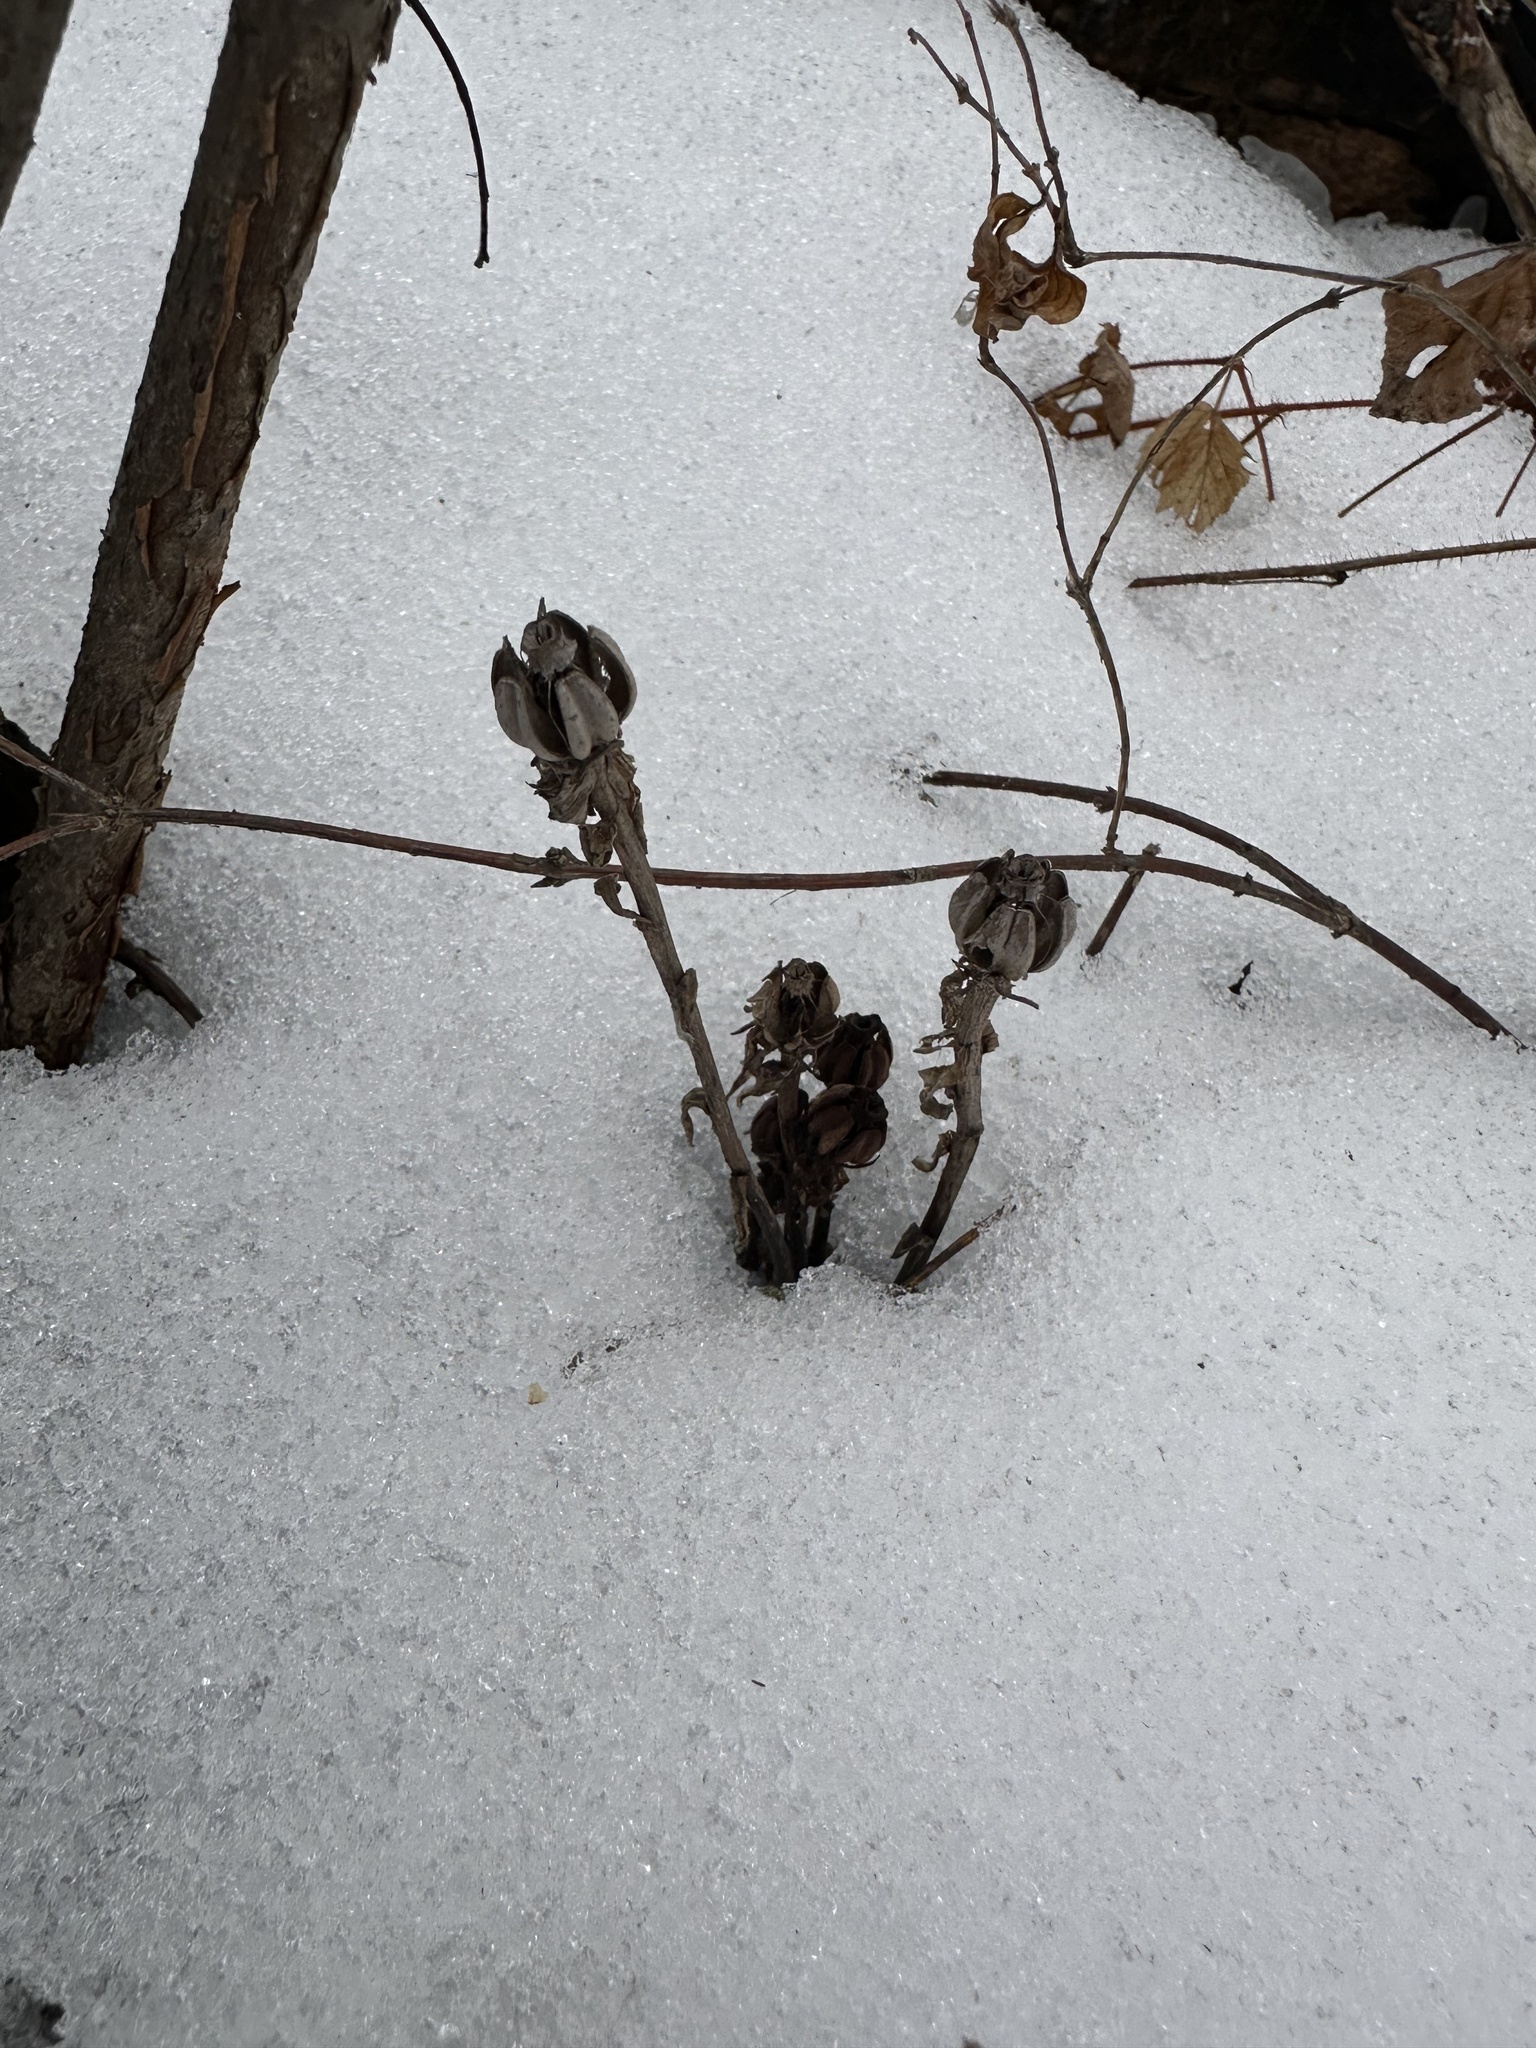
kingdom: Plantae
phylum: Tracheophyta
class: Magnoliopsida
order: Ericales
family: Ericaceae
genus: Monotropa
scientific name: Monotropa uniflora
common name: Convulsion root
